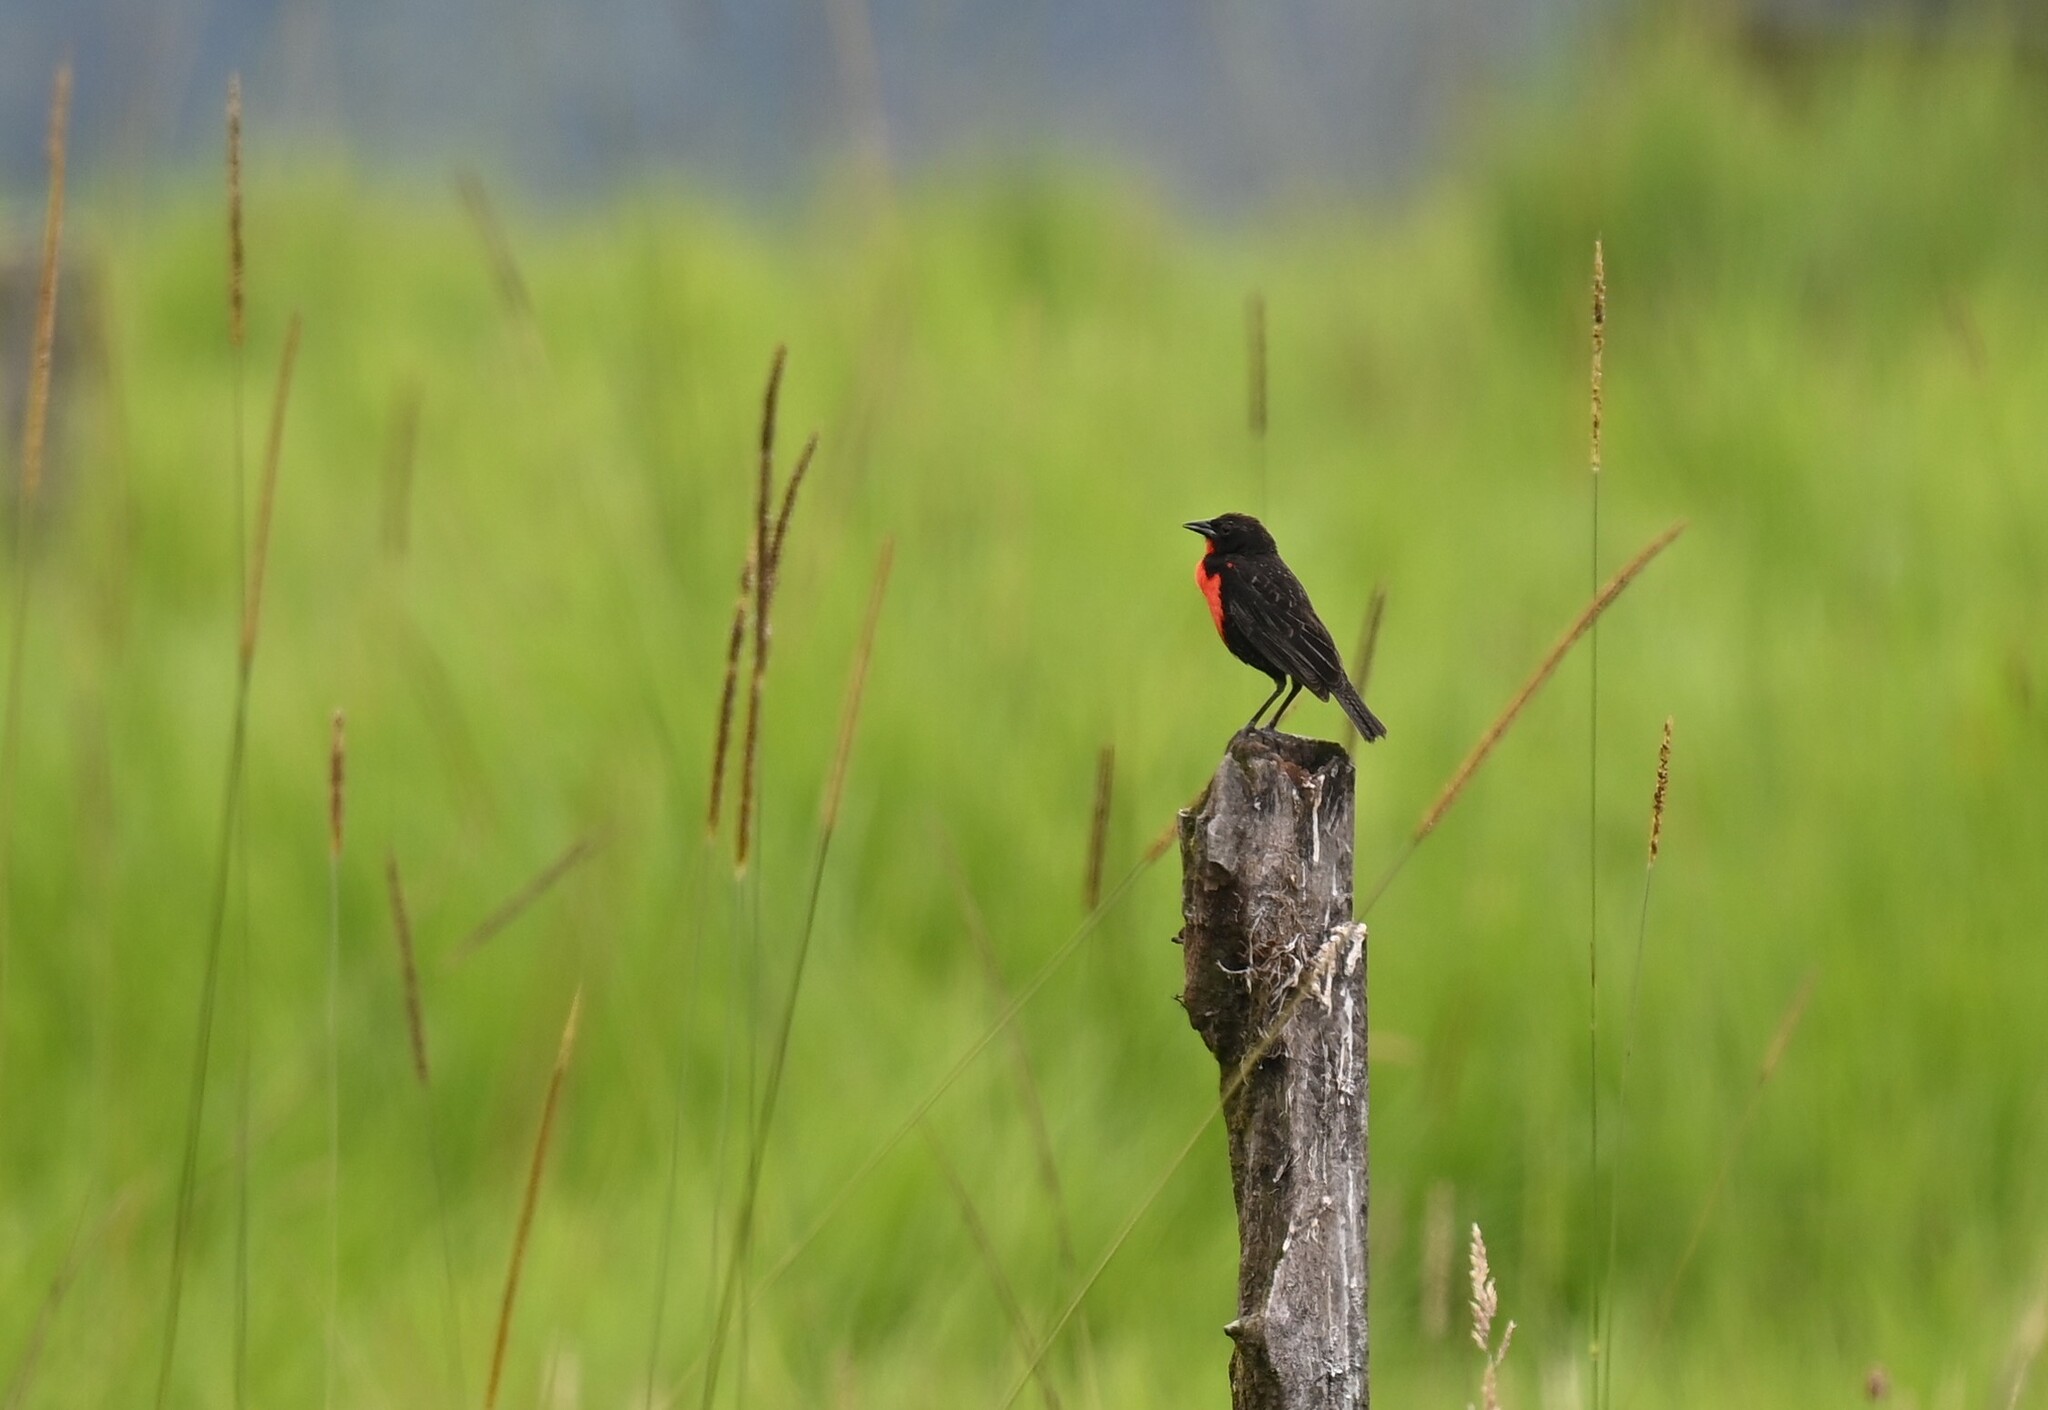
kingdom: Animalia
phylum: Chordata
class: Aves
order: Passeriformes
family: Icteridae
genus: Sturnella
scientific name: Sturnella militaris
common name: Red-breasted blackbird
